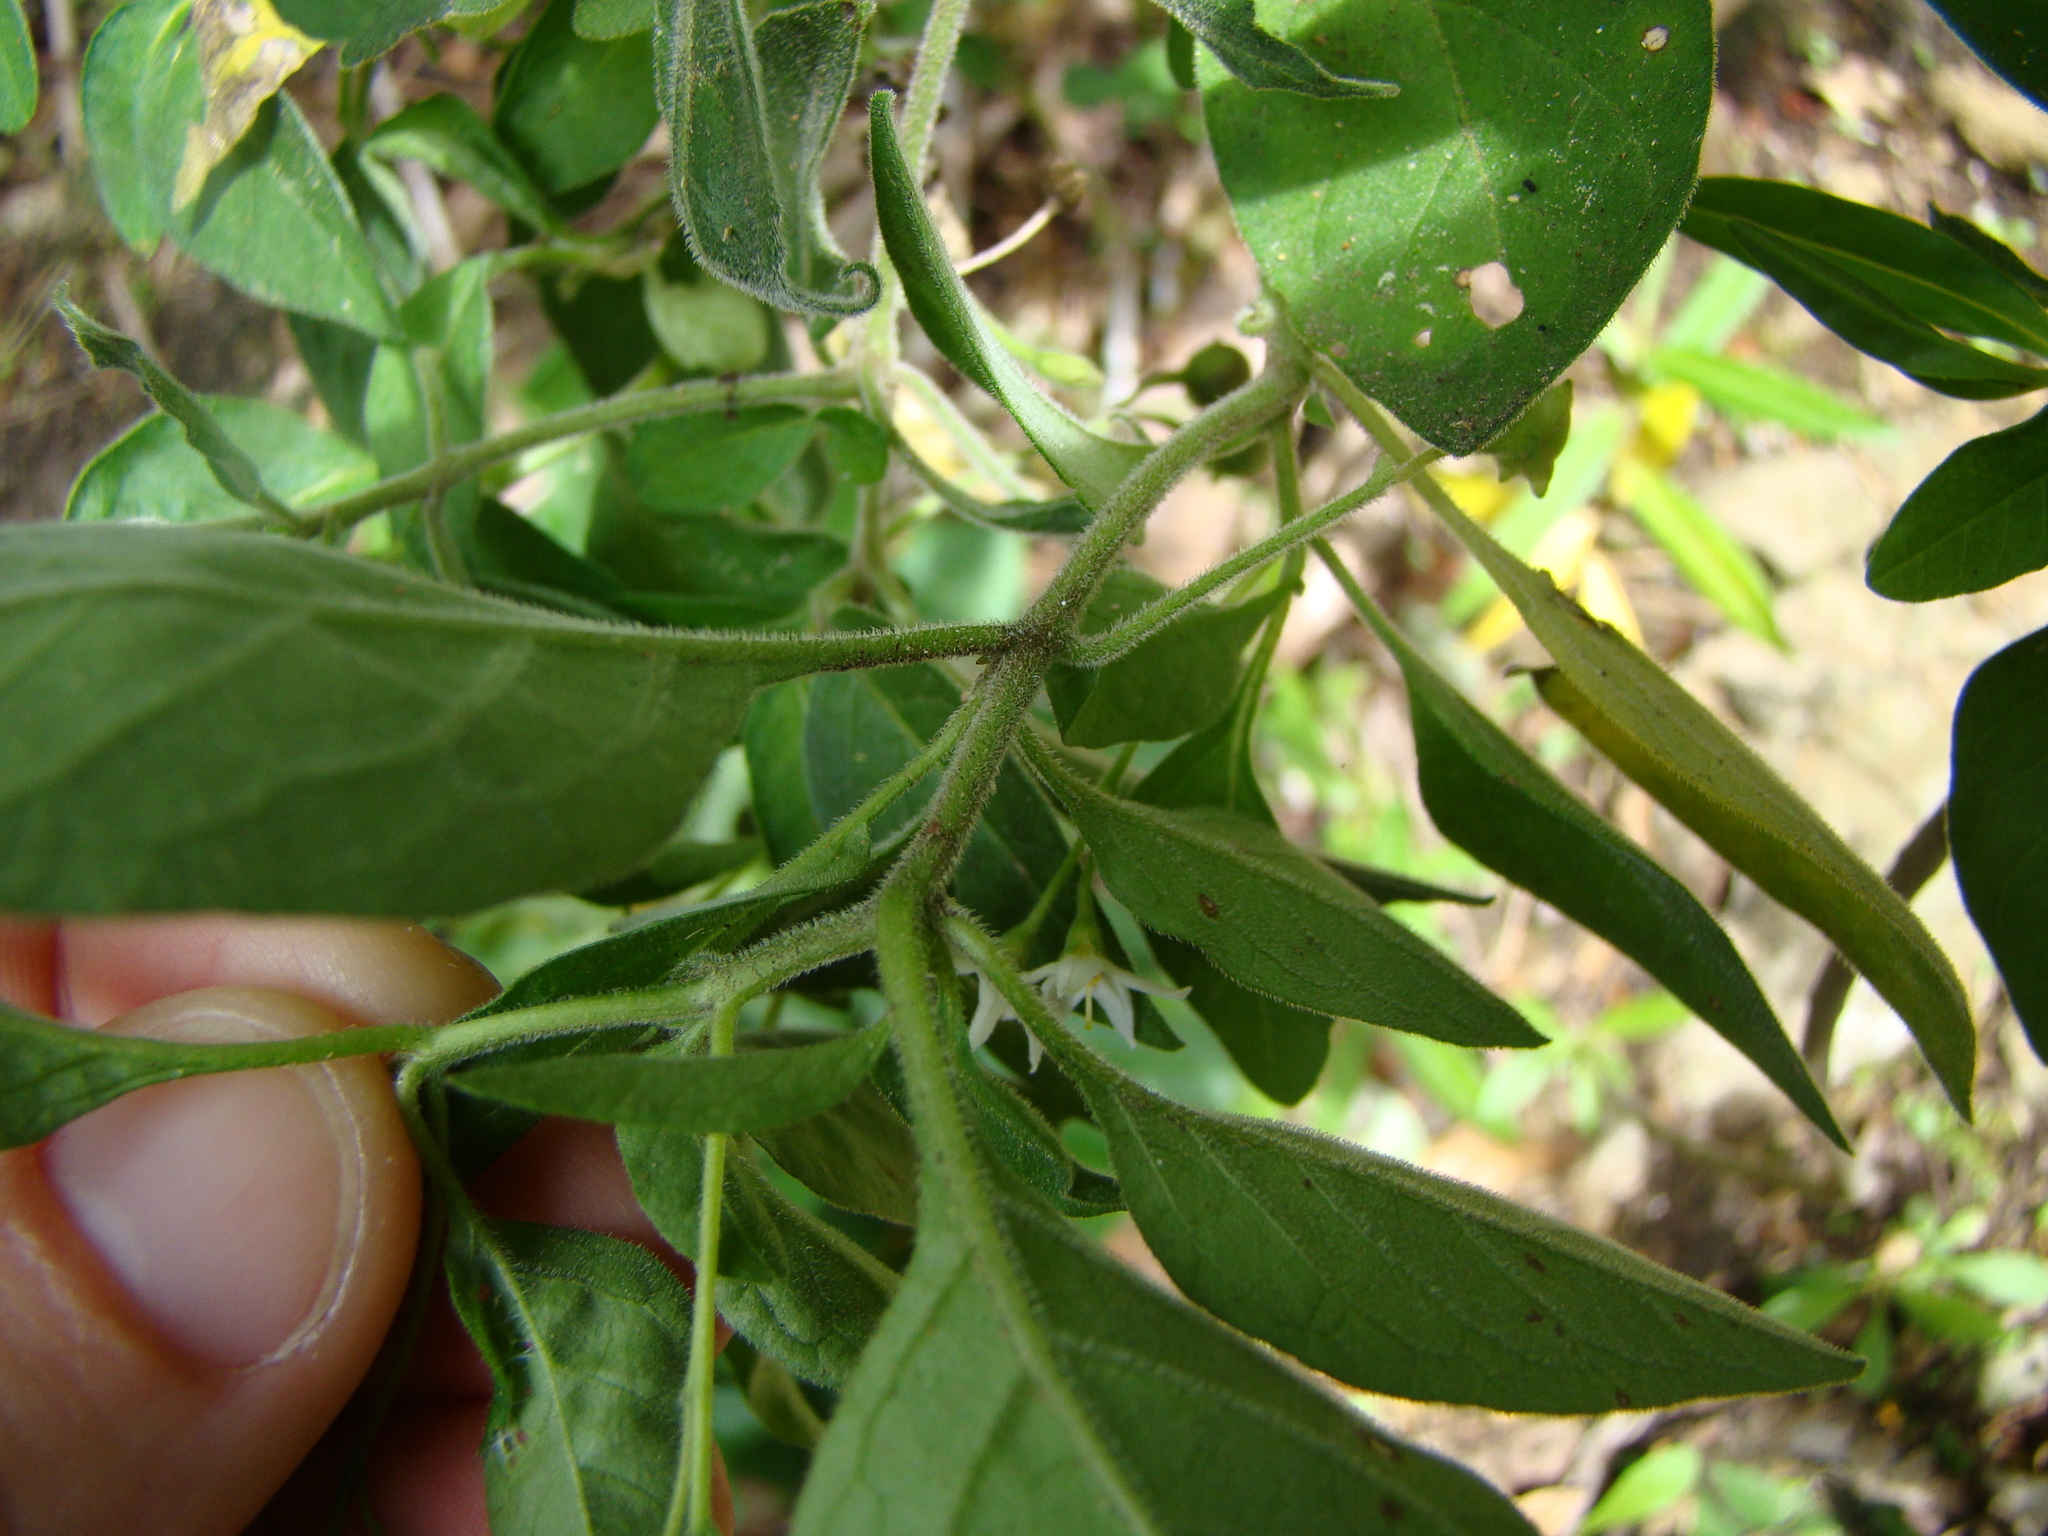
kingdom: Plantae
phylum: Tracheophyta
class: Magnoliopsida
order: Solanales
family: Solanaceae
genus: Solanum
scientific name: Solanum chenopodioides
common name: Tall nightshade
